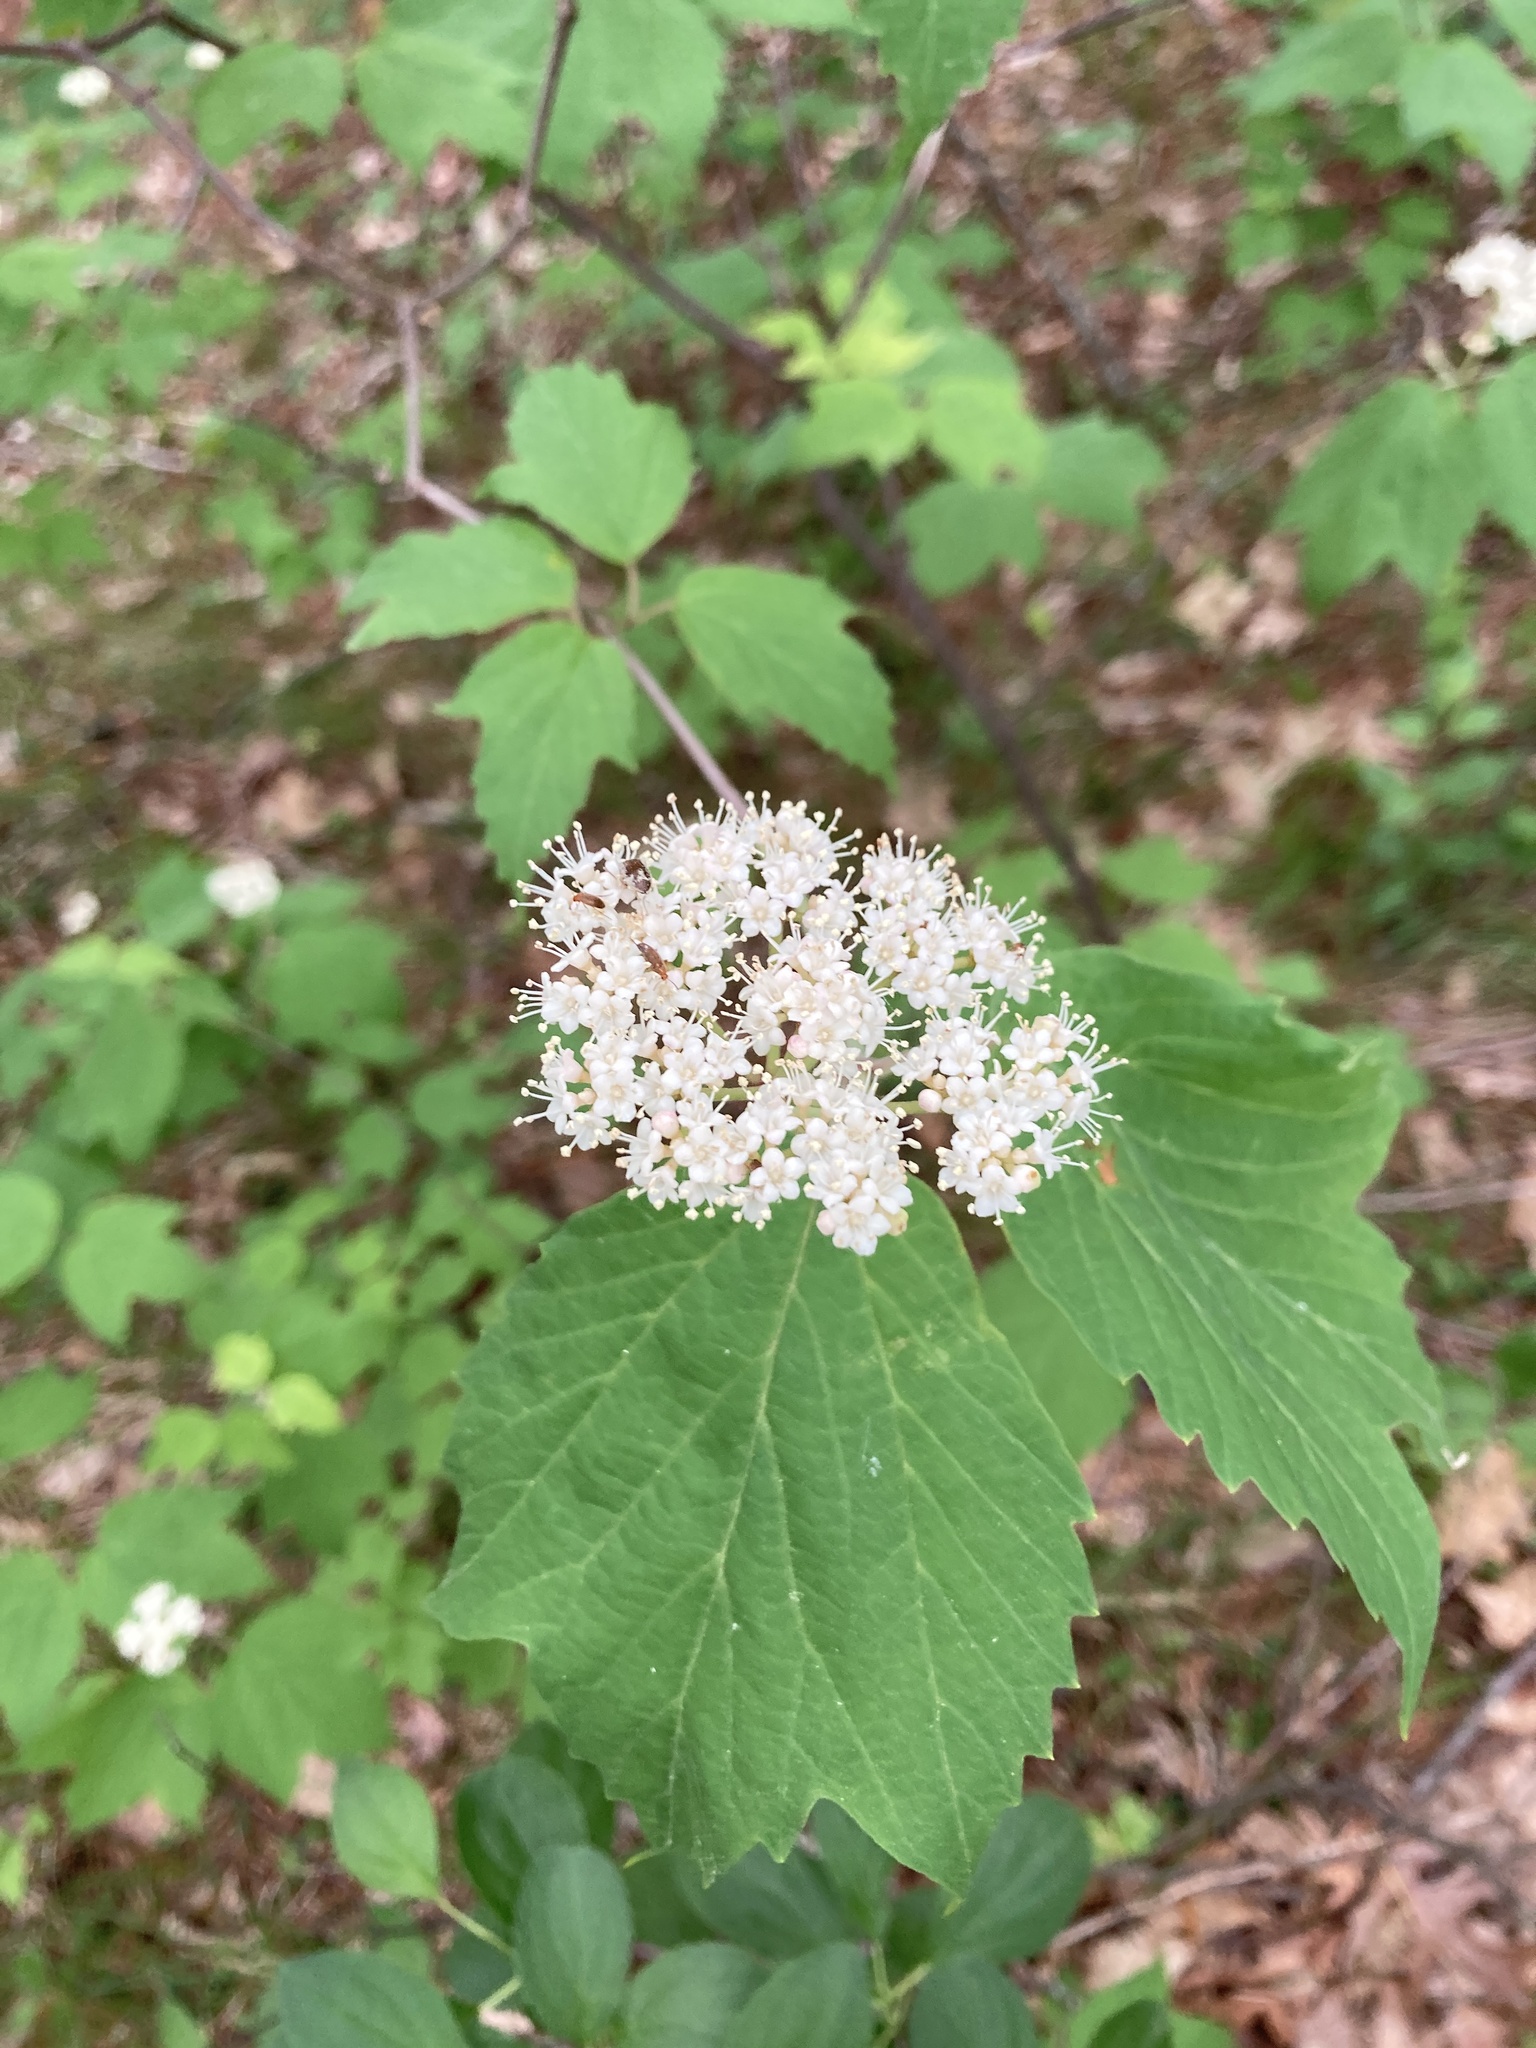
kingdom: Plantae
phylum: Tracheophyta
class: Magnoliopsida
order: Dipsacales
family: Viburnaceae
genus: Viburnum
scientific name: Viburnum acerifolium
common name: Dockmackie
